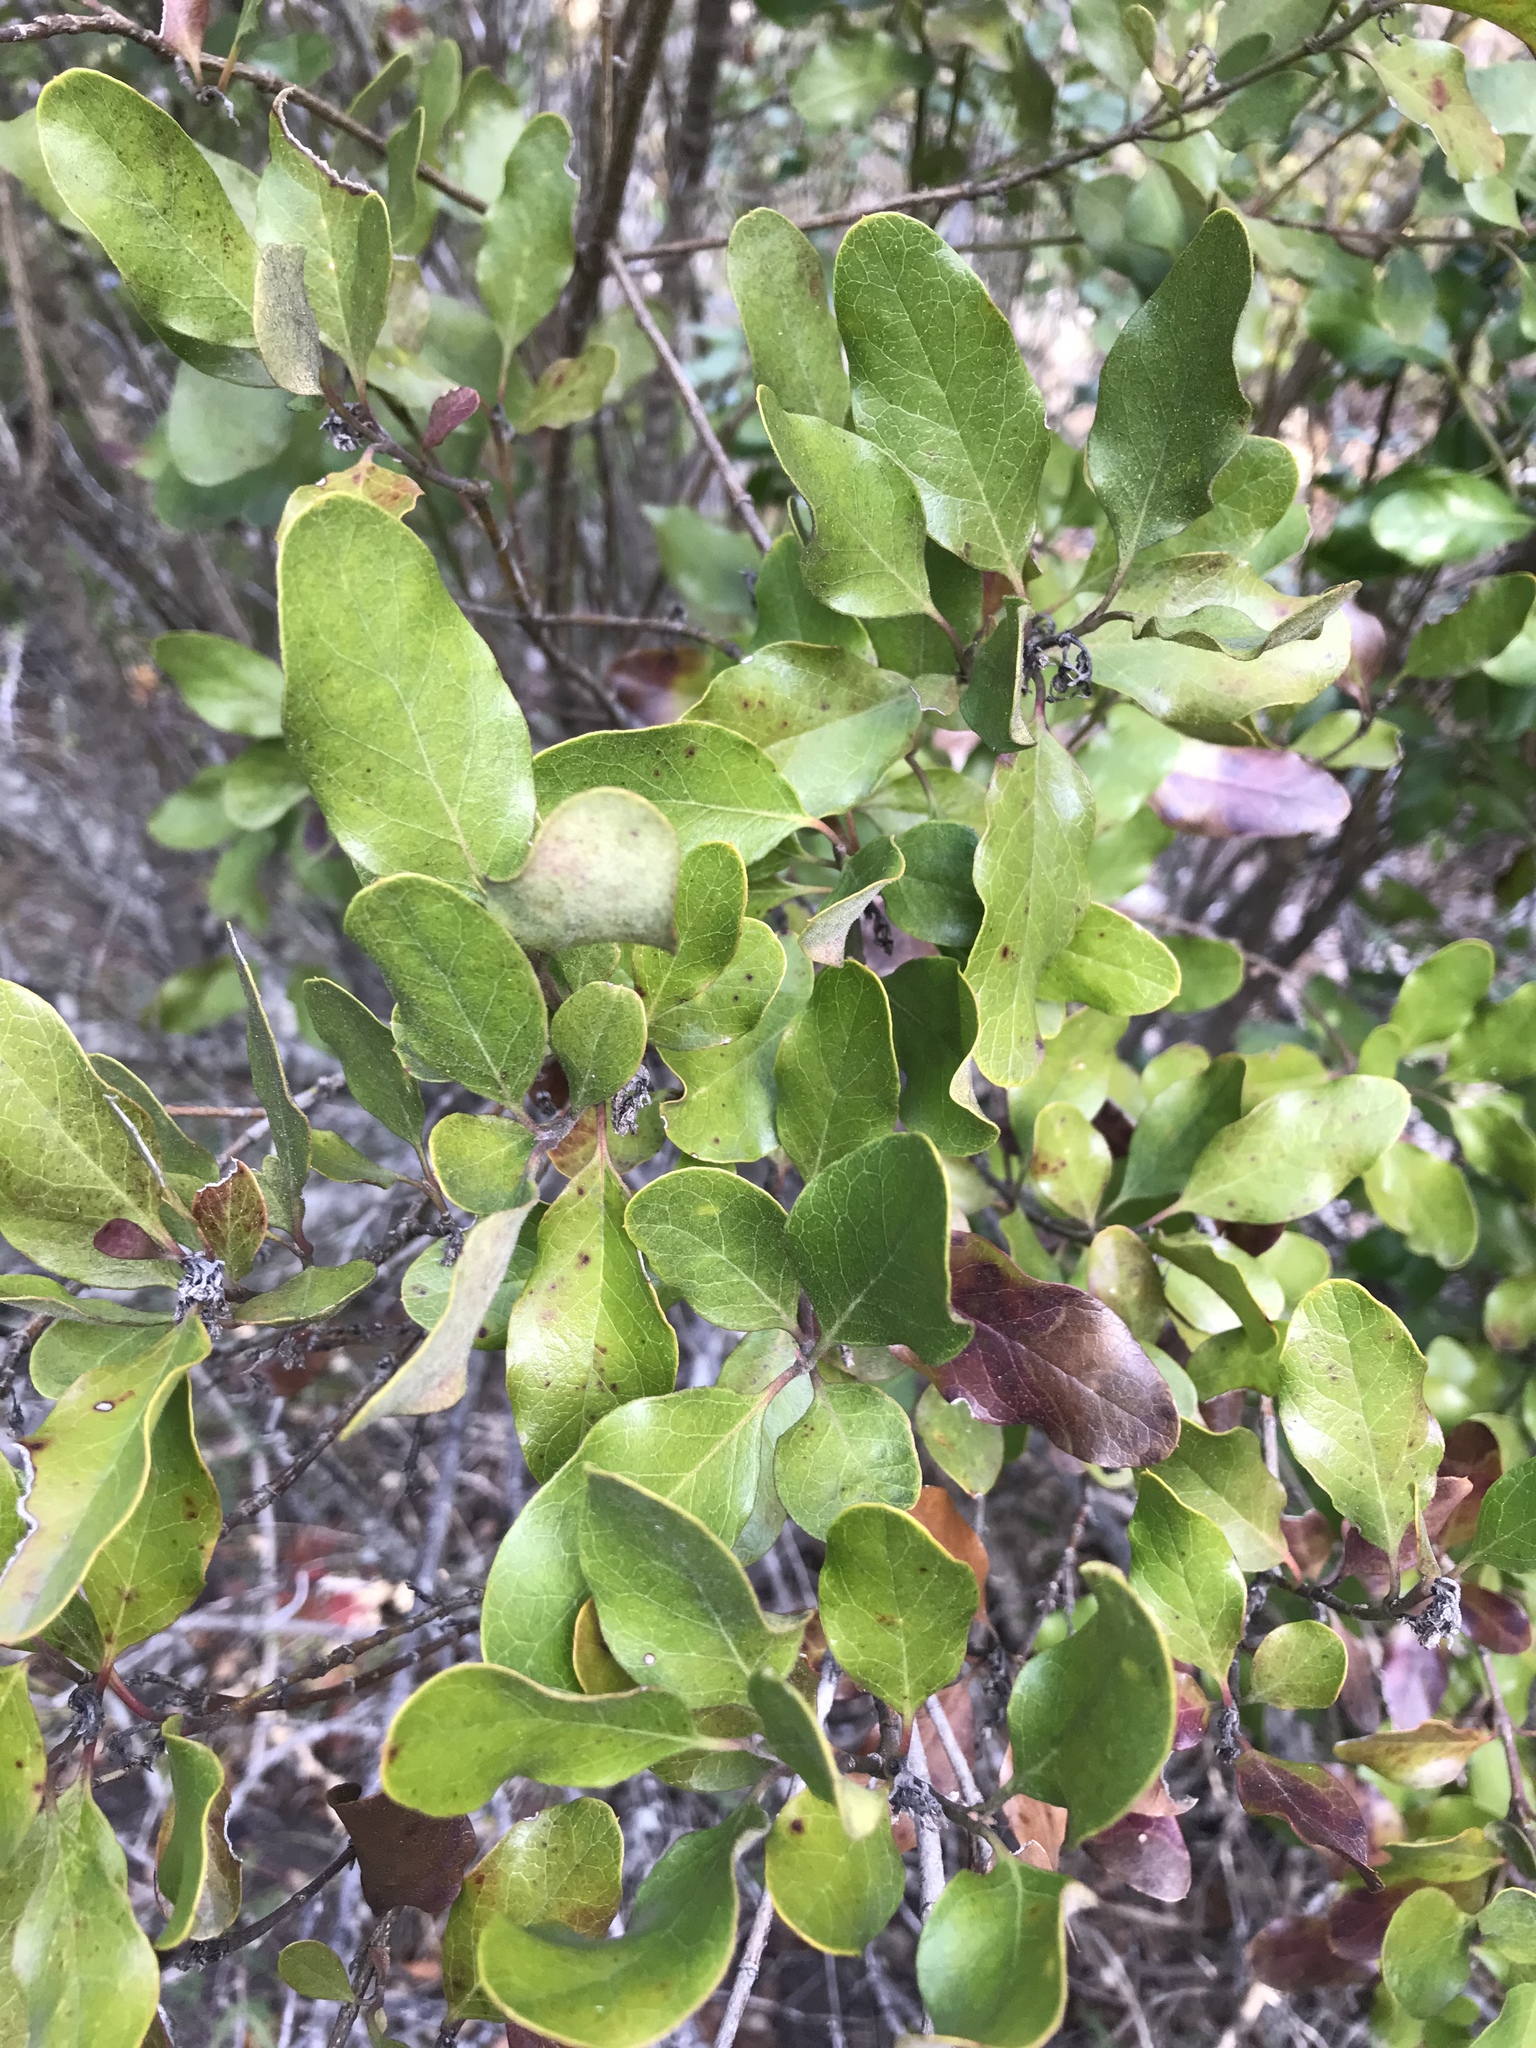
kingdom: Plantae
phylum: Tracheophyta
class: Magnoliopsida
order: Garryales
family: Garryaceae
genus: Garrya
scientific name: Garrya lindheimeri
